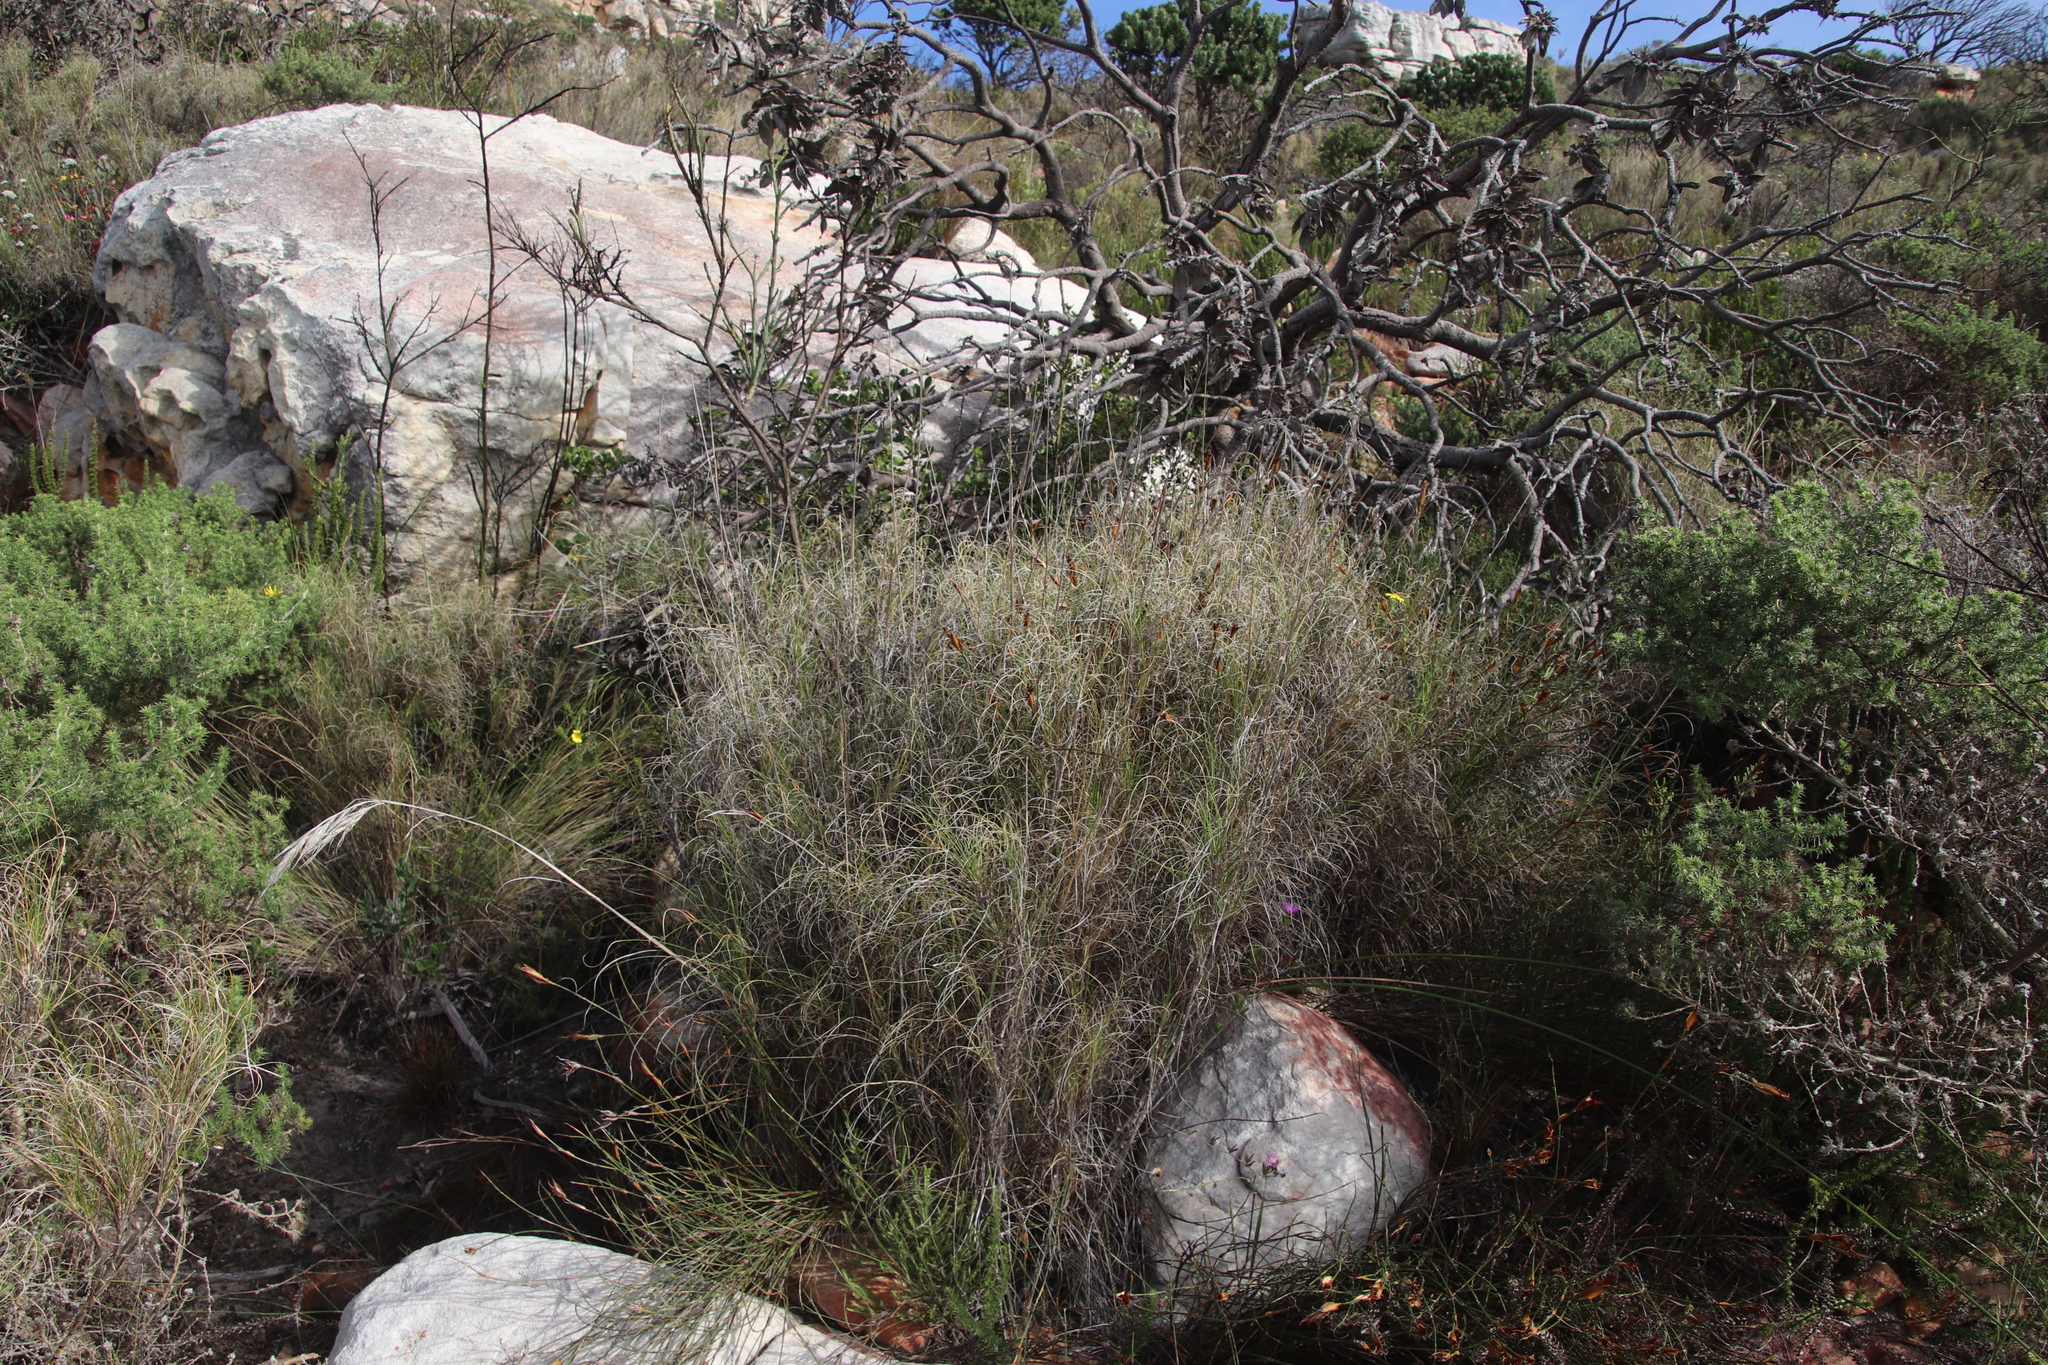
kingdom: Plantae
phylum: Tracheophyta
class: Liliopsida
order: Poales
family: Poaceae
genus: Pseudopentameris
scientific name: Pseudopentameris macrantha
